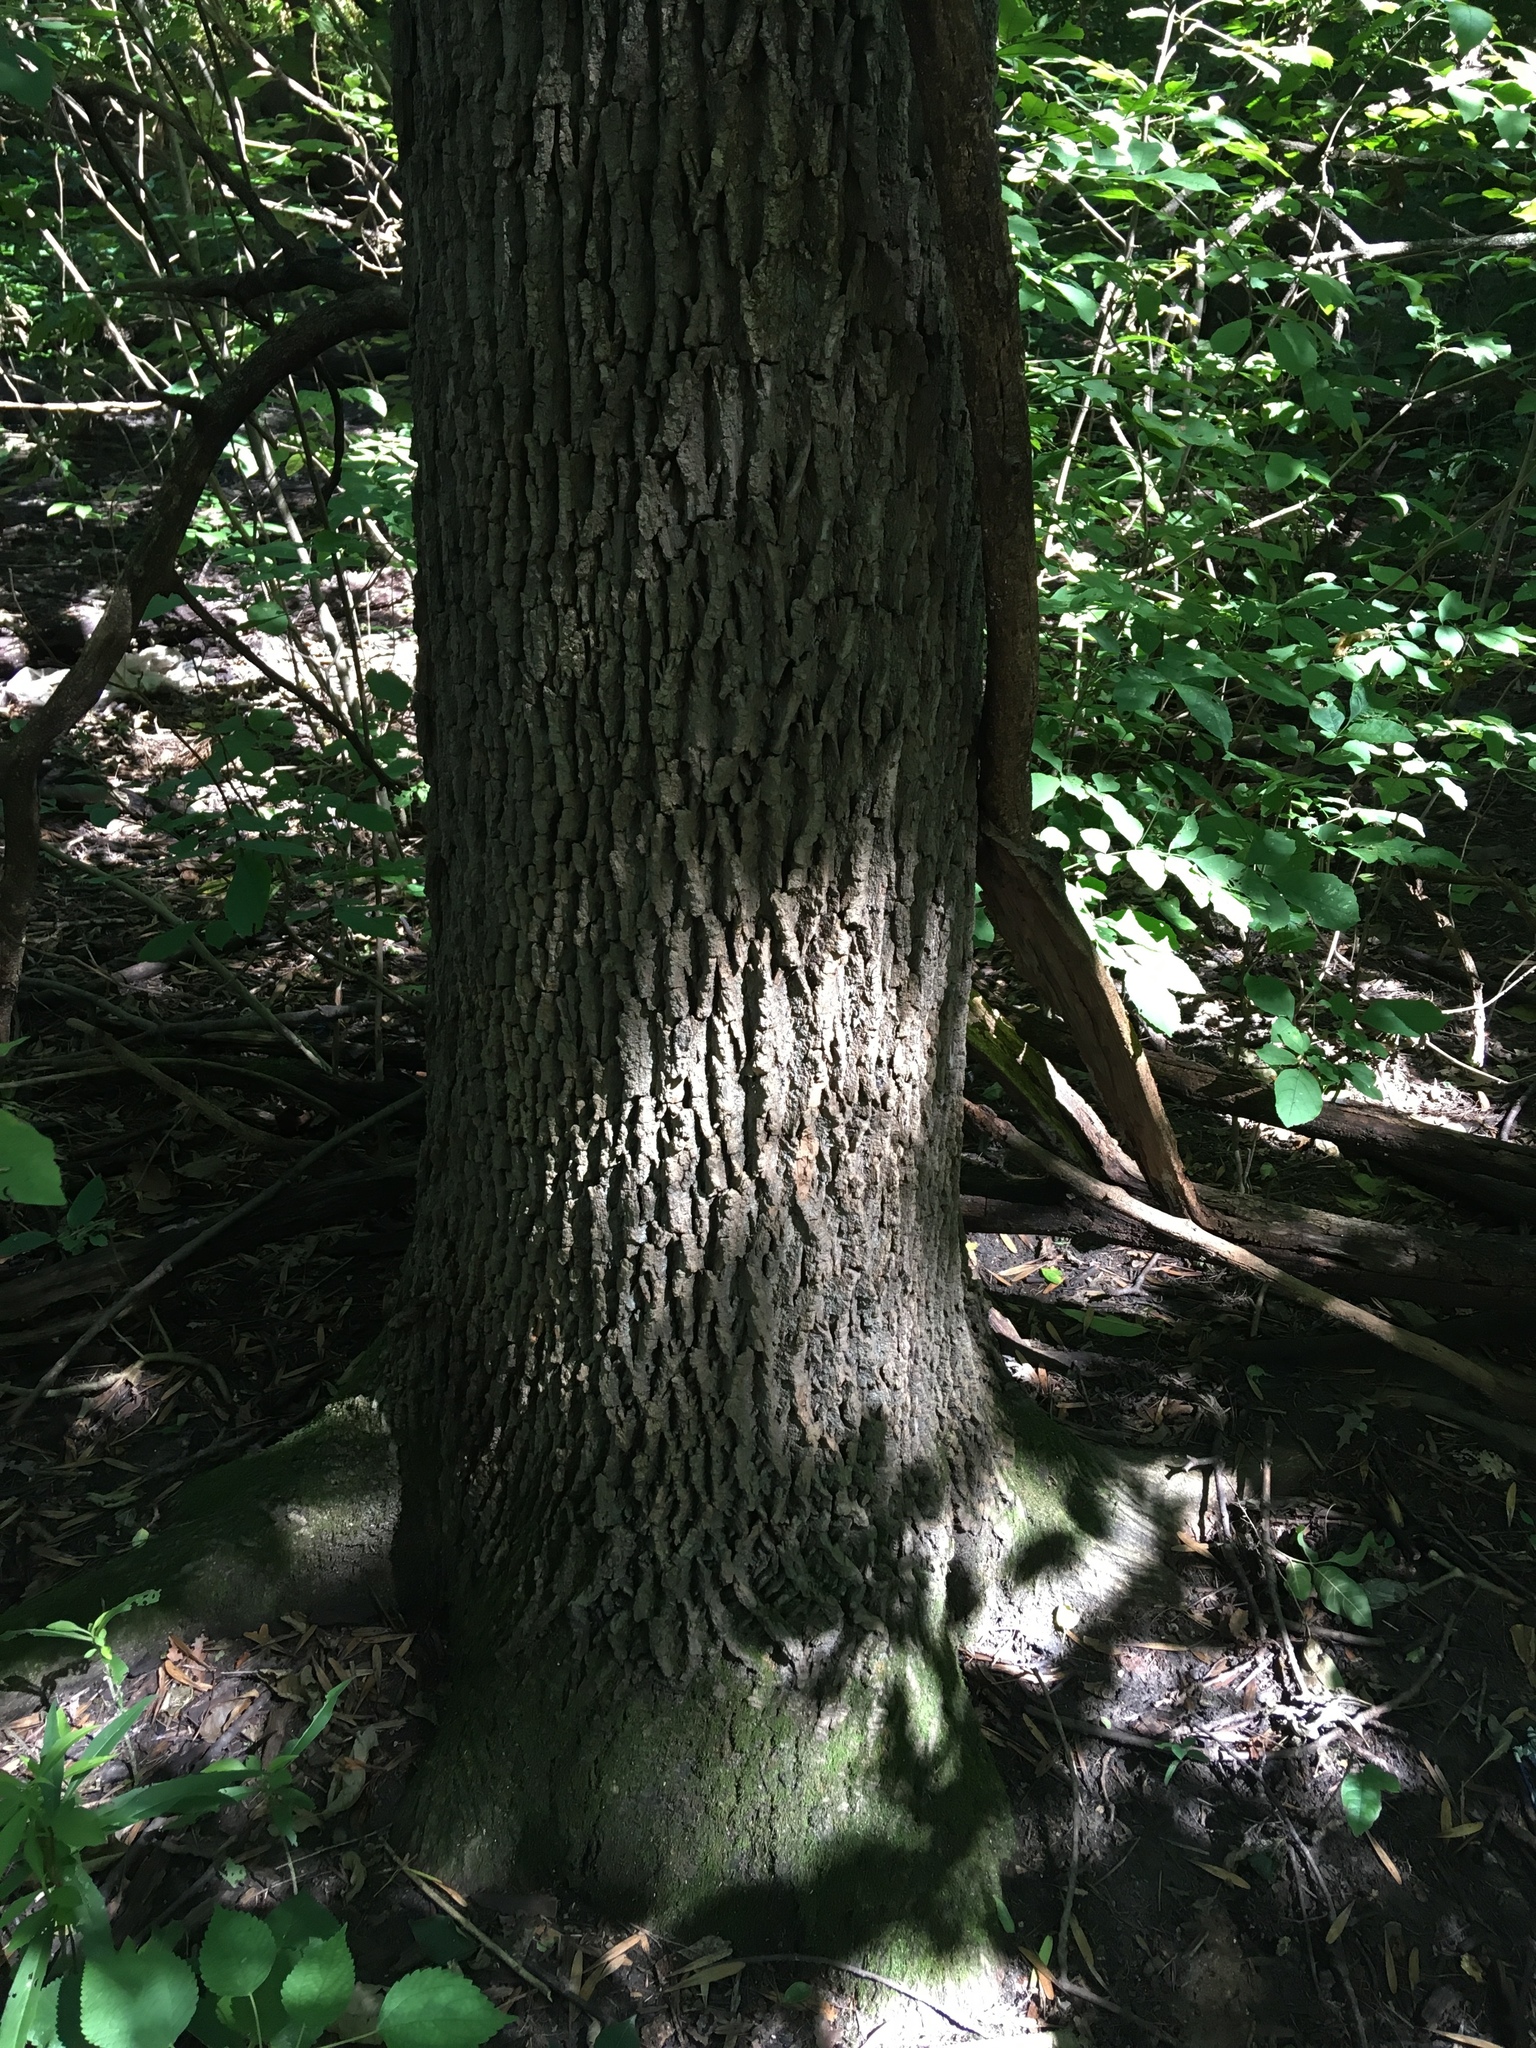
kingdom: Plantae
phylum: Tracheophyta
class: Magnoliopsida
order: Lamiales
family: Oleaceae
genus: Fraxinus
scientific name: Fraxinus profunda
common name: Pumpkin ash
